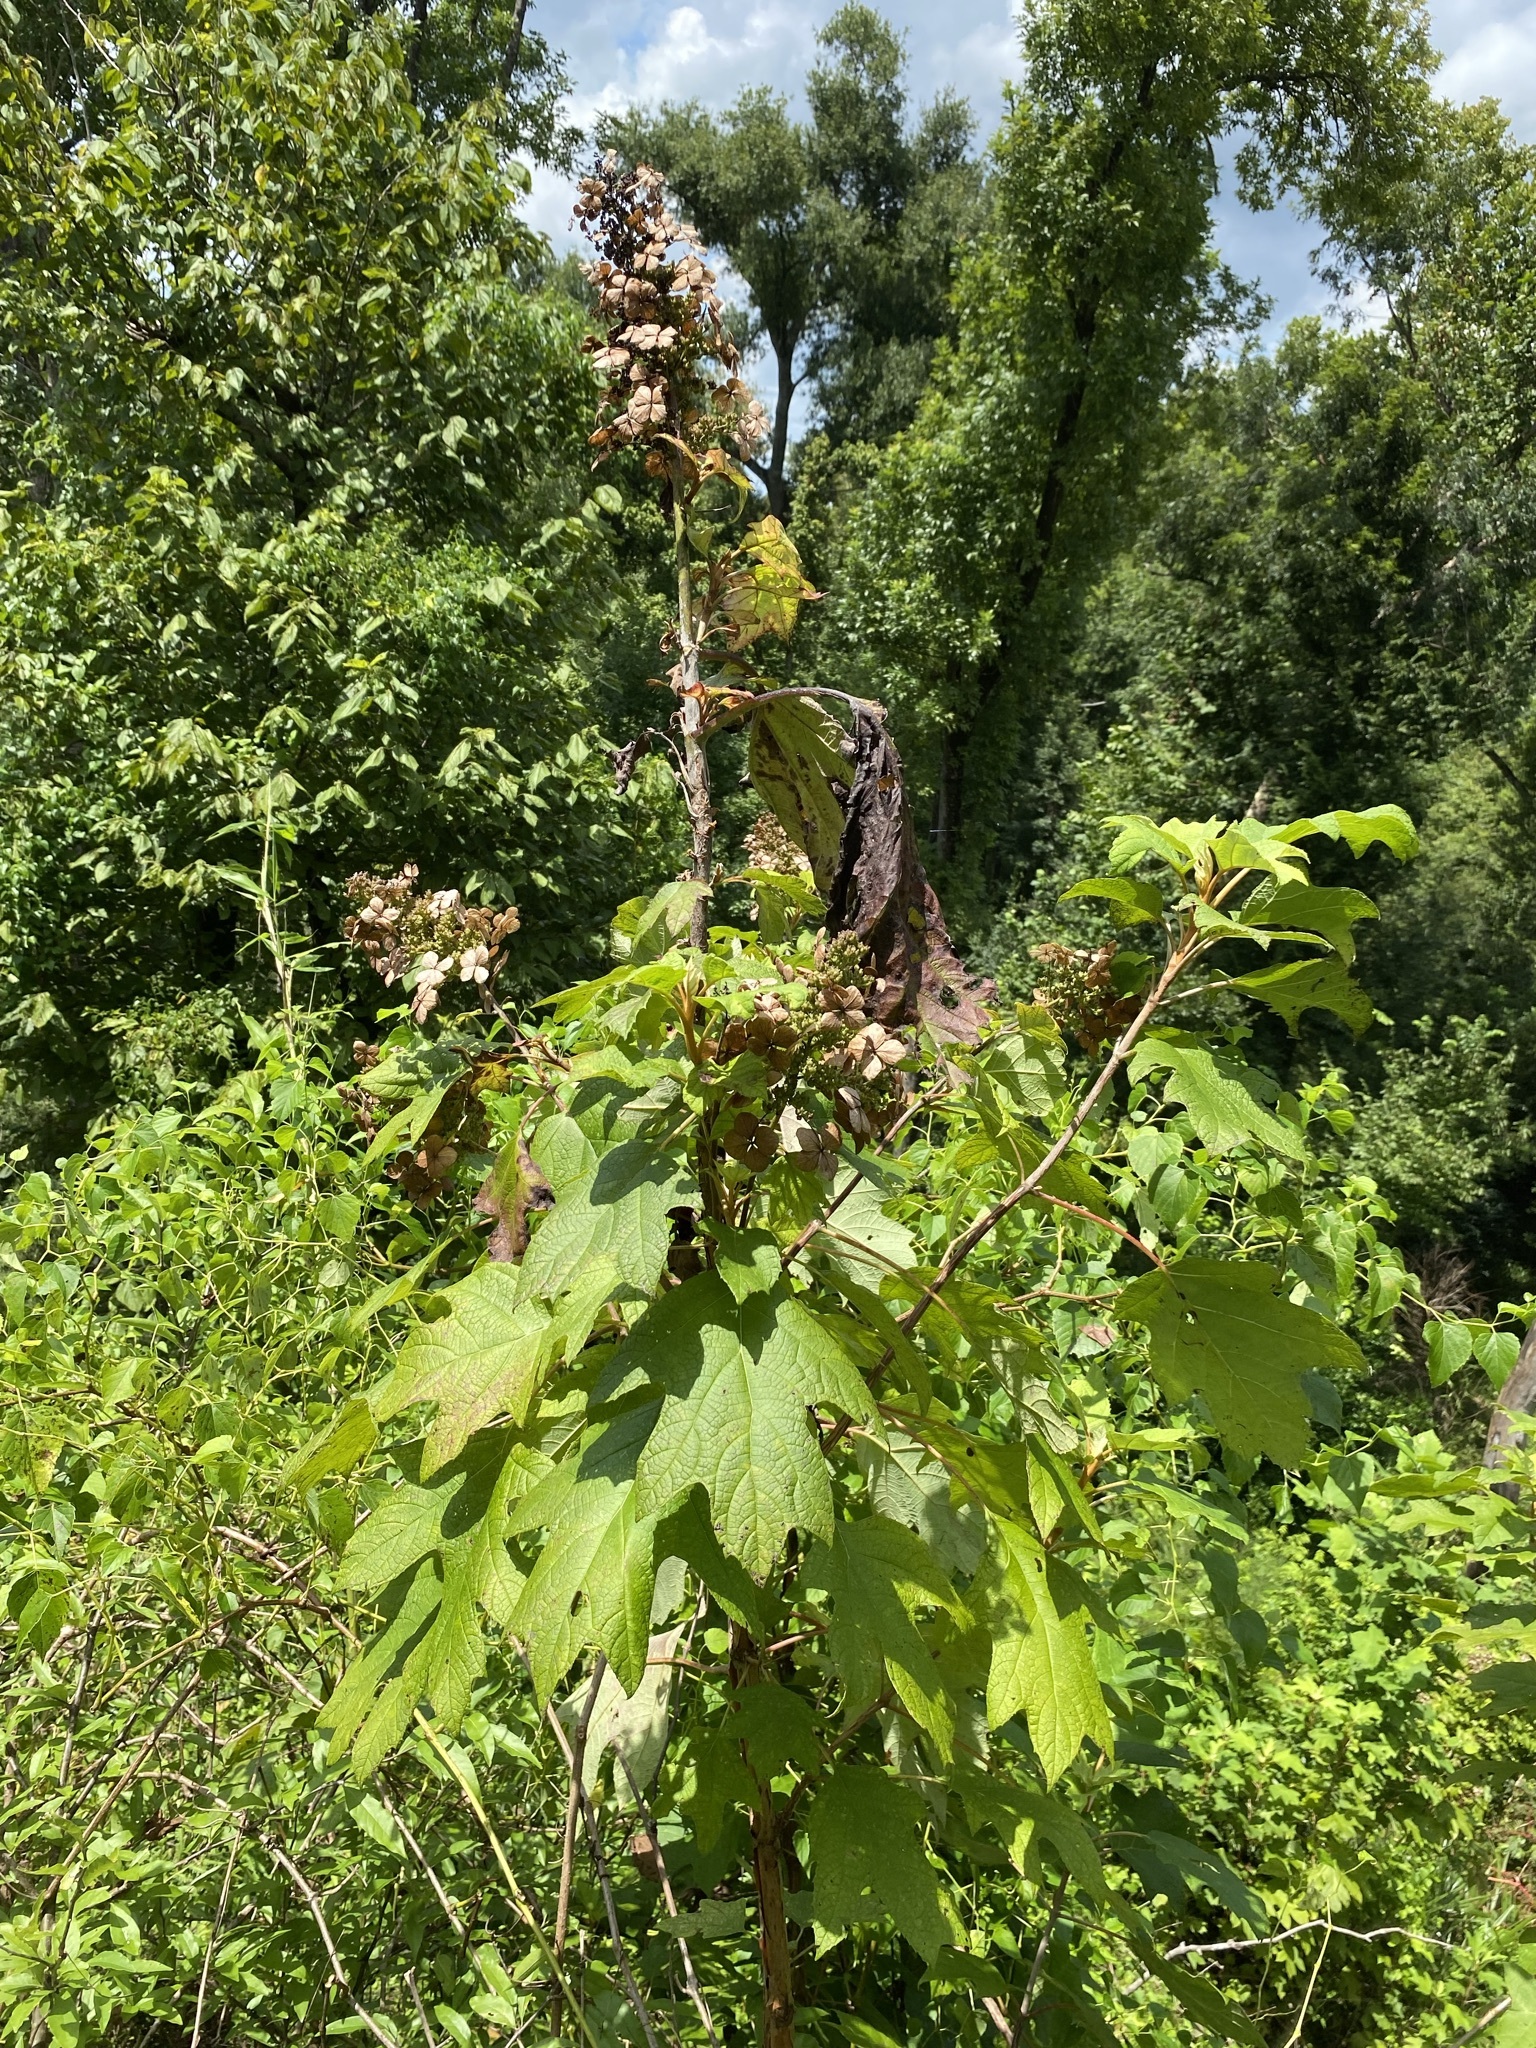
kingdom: Plantae
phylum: Tracheophyta
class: Magnoliopsida
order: Cornales
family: Hydrangeaceae
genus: Hydrangea
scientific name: Hydrangea quercifolia
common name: Oak-leaf hydrangea
